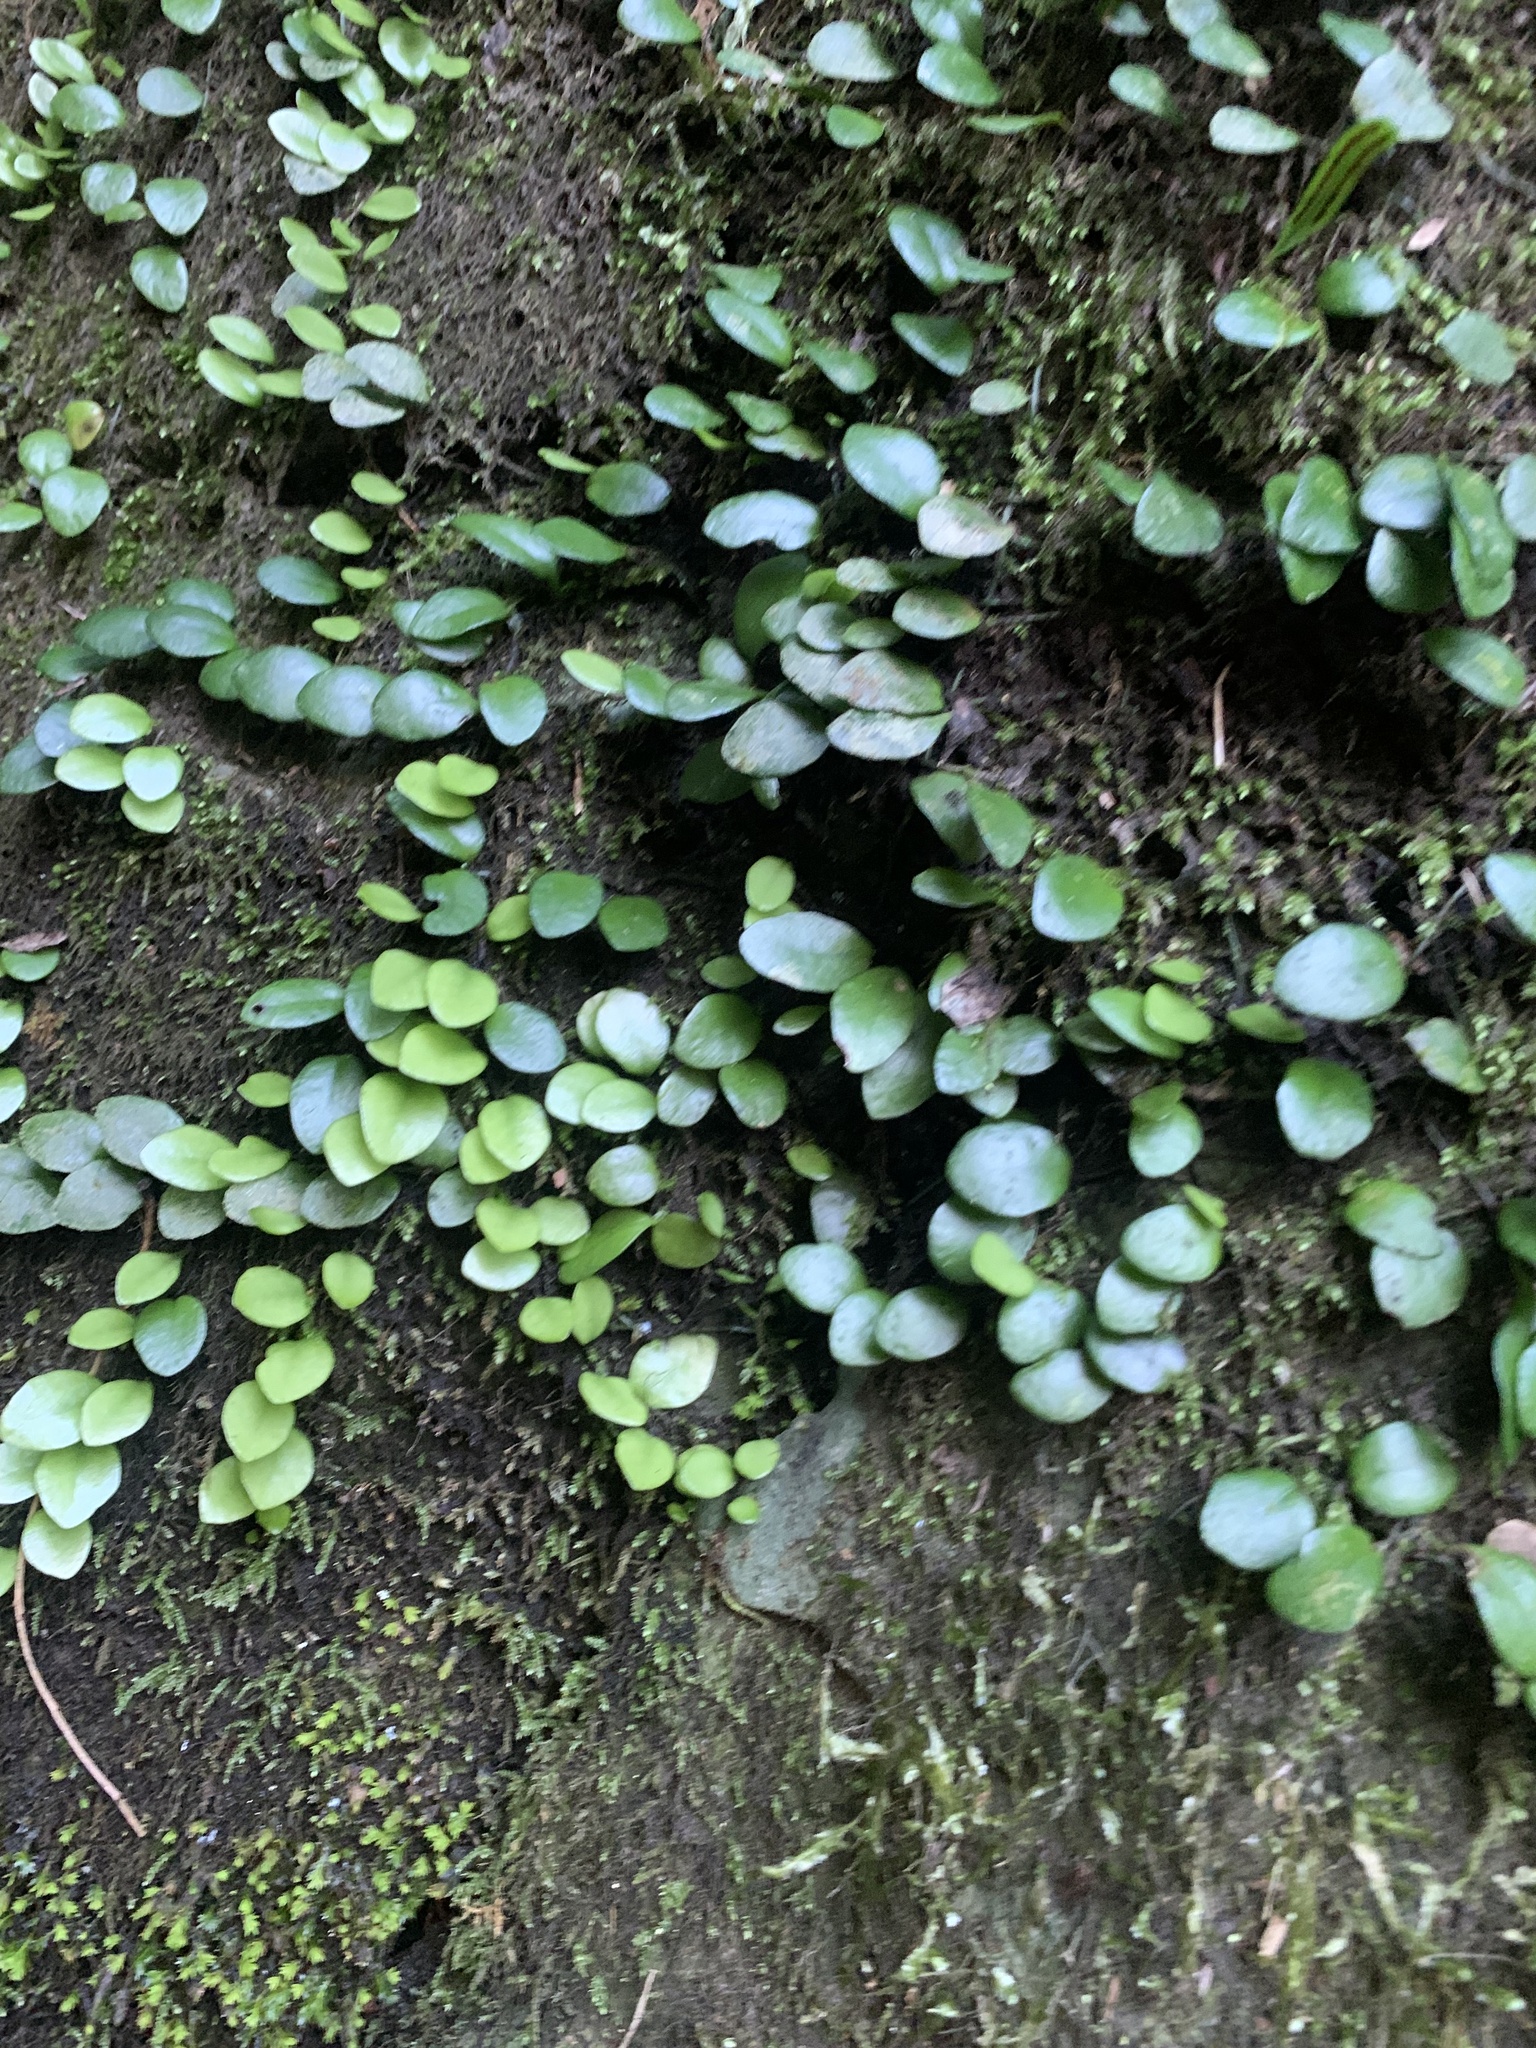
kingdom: Plantae
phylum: Tracheophyta
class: Polypodiopsida
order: Polypodiales
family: Polypodiaceae
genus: Lepisorus
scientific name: Lepisorus microphyllus
